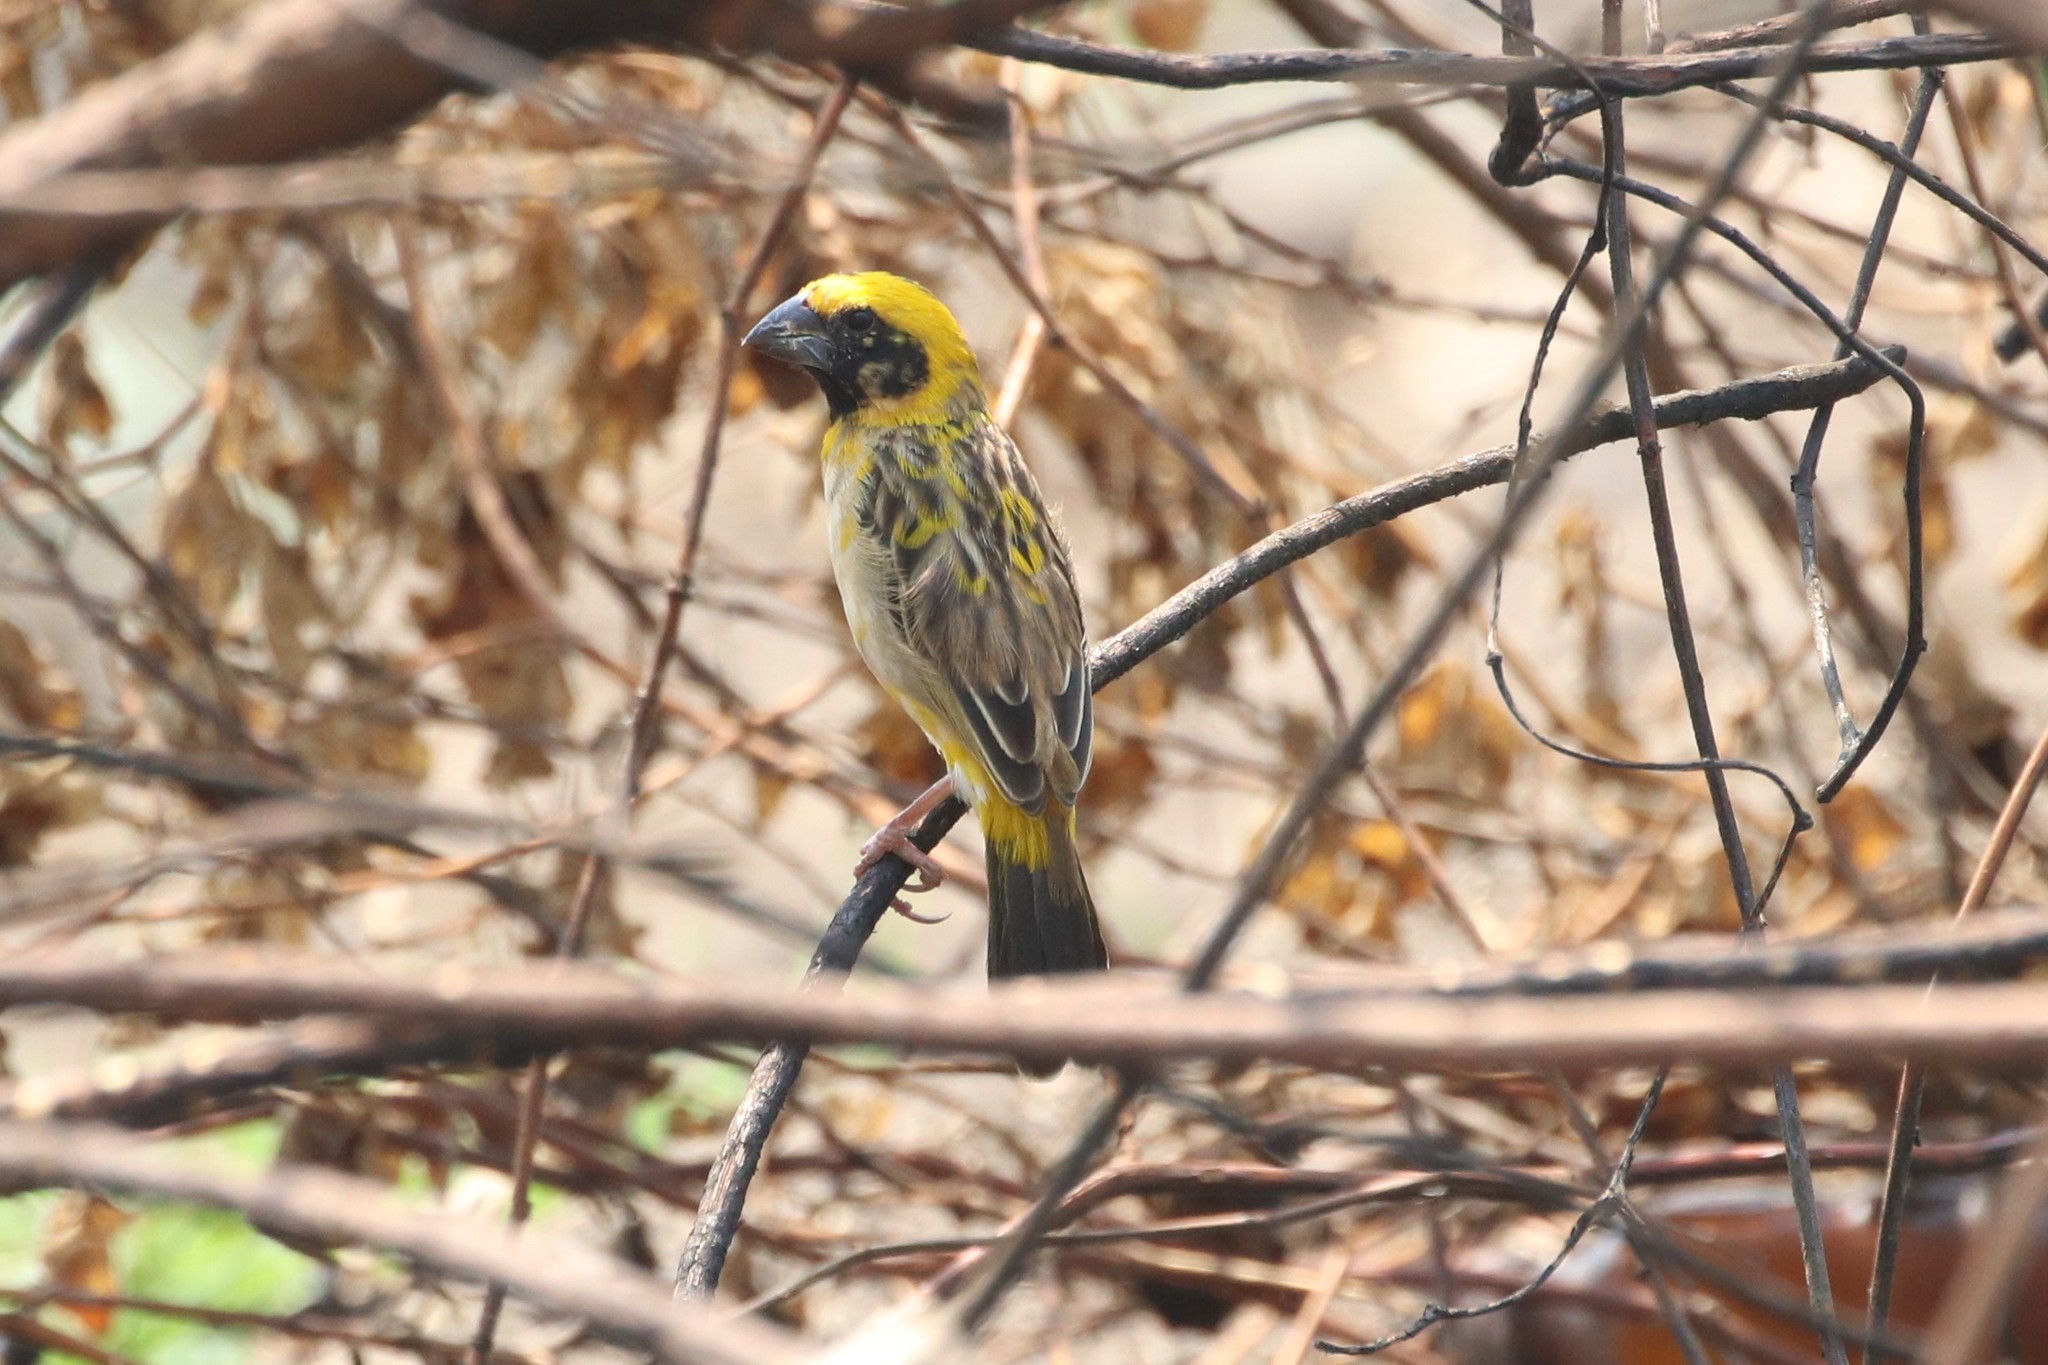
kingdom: Animalia
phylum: Chordata
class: Aves
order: Passeriformes
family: Ploceidae
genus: Ploceus
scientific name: Ploceus hypoxanthus
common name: Asian golden weaver
